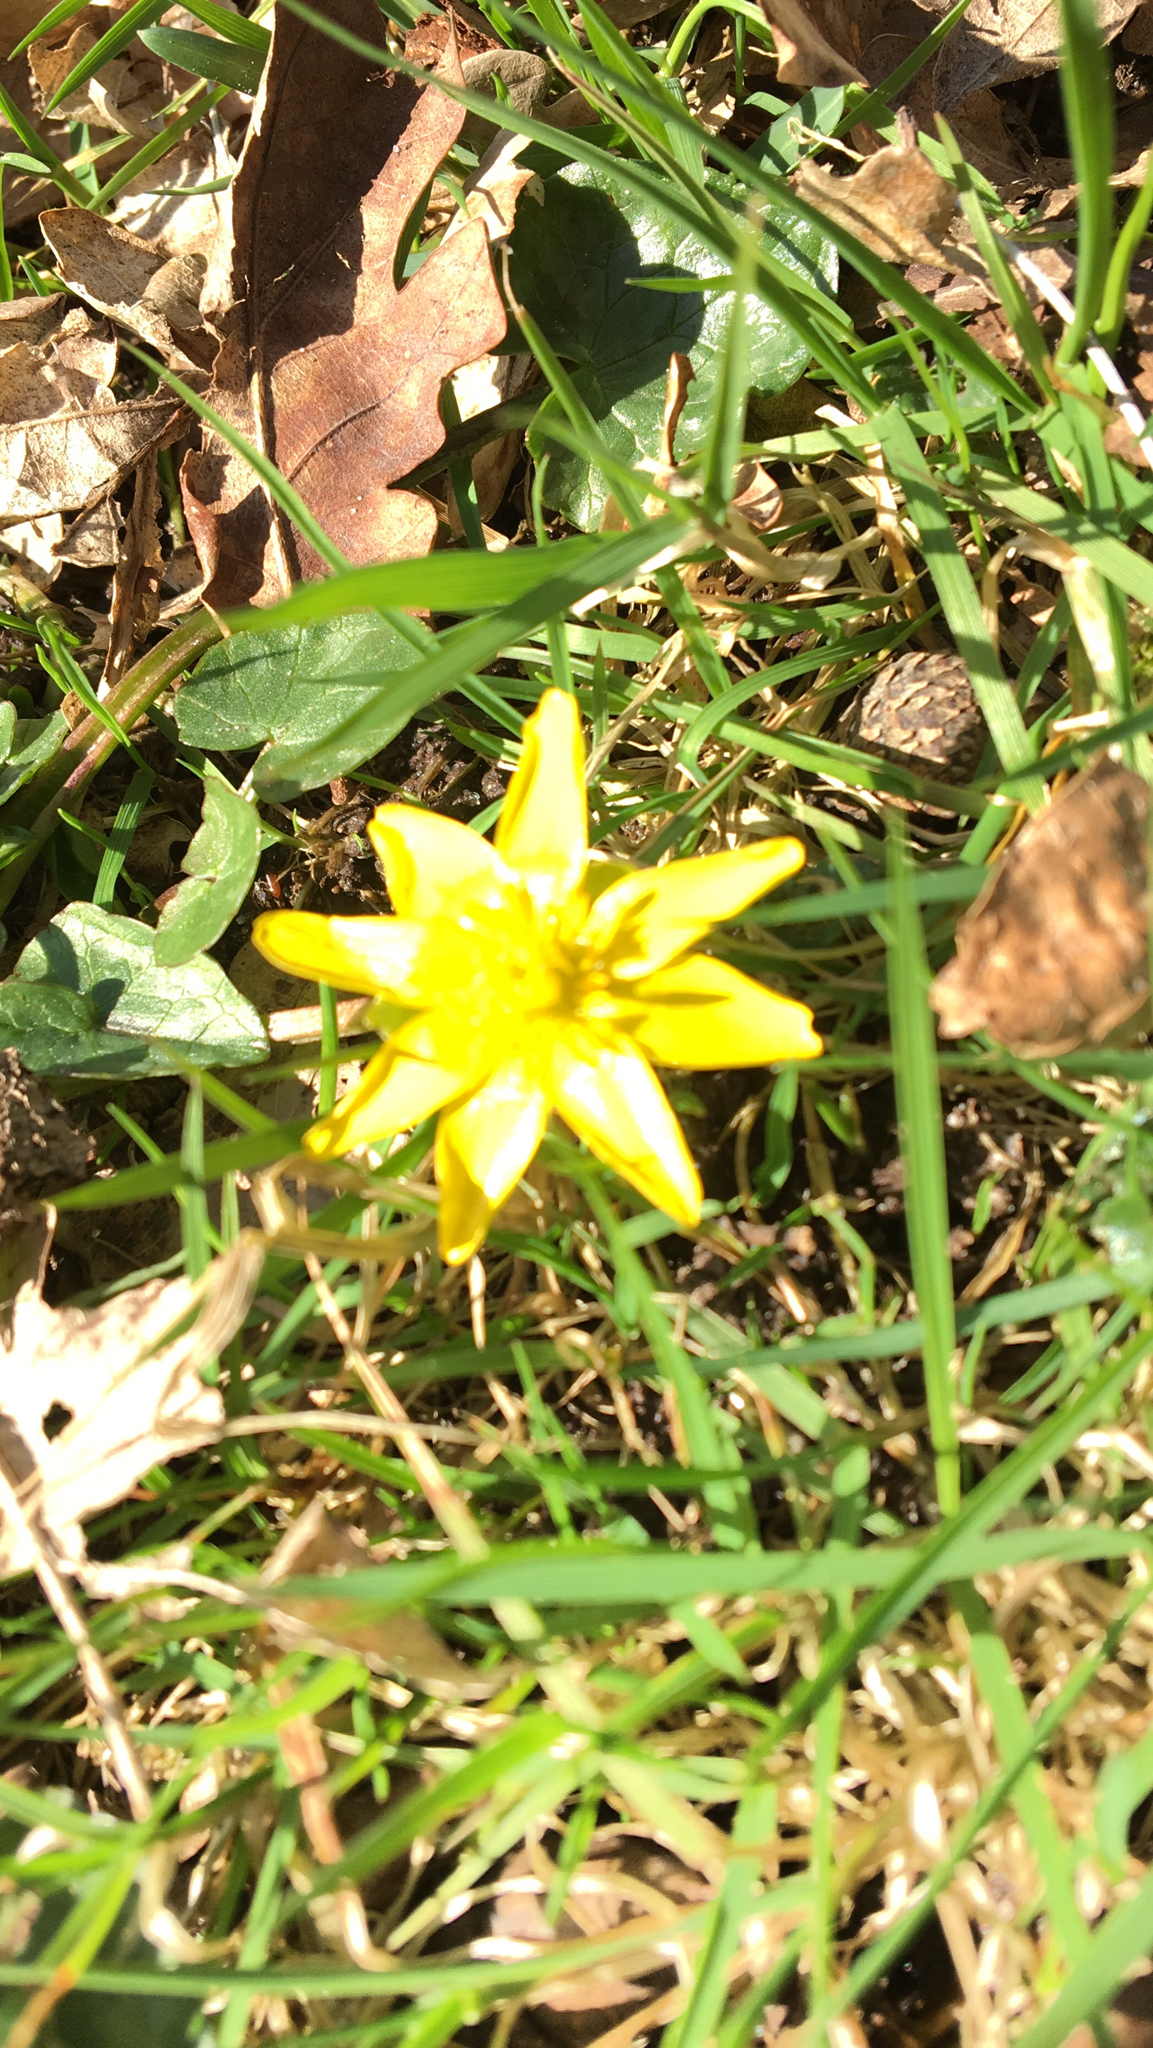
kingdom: Plantae
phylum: Tracheophyta
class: Liliopsida
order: Liliales
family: Liliaceae
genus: Gagea
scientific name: Gagea lutea
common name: Yellow star-of-bethlehem
